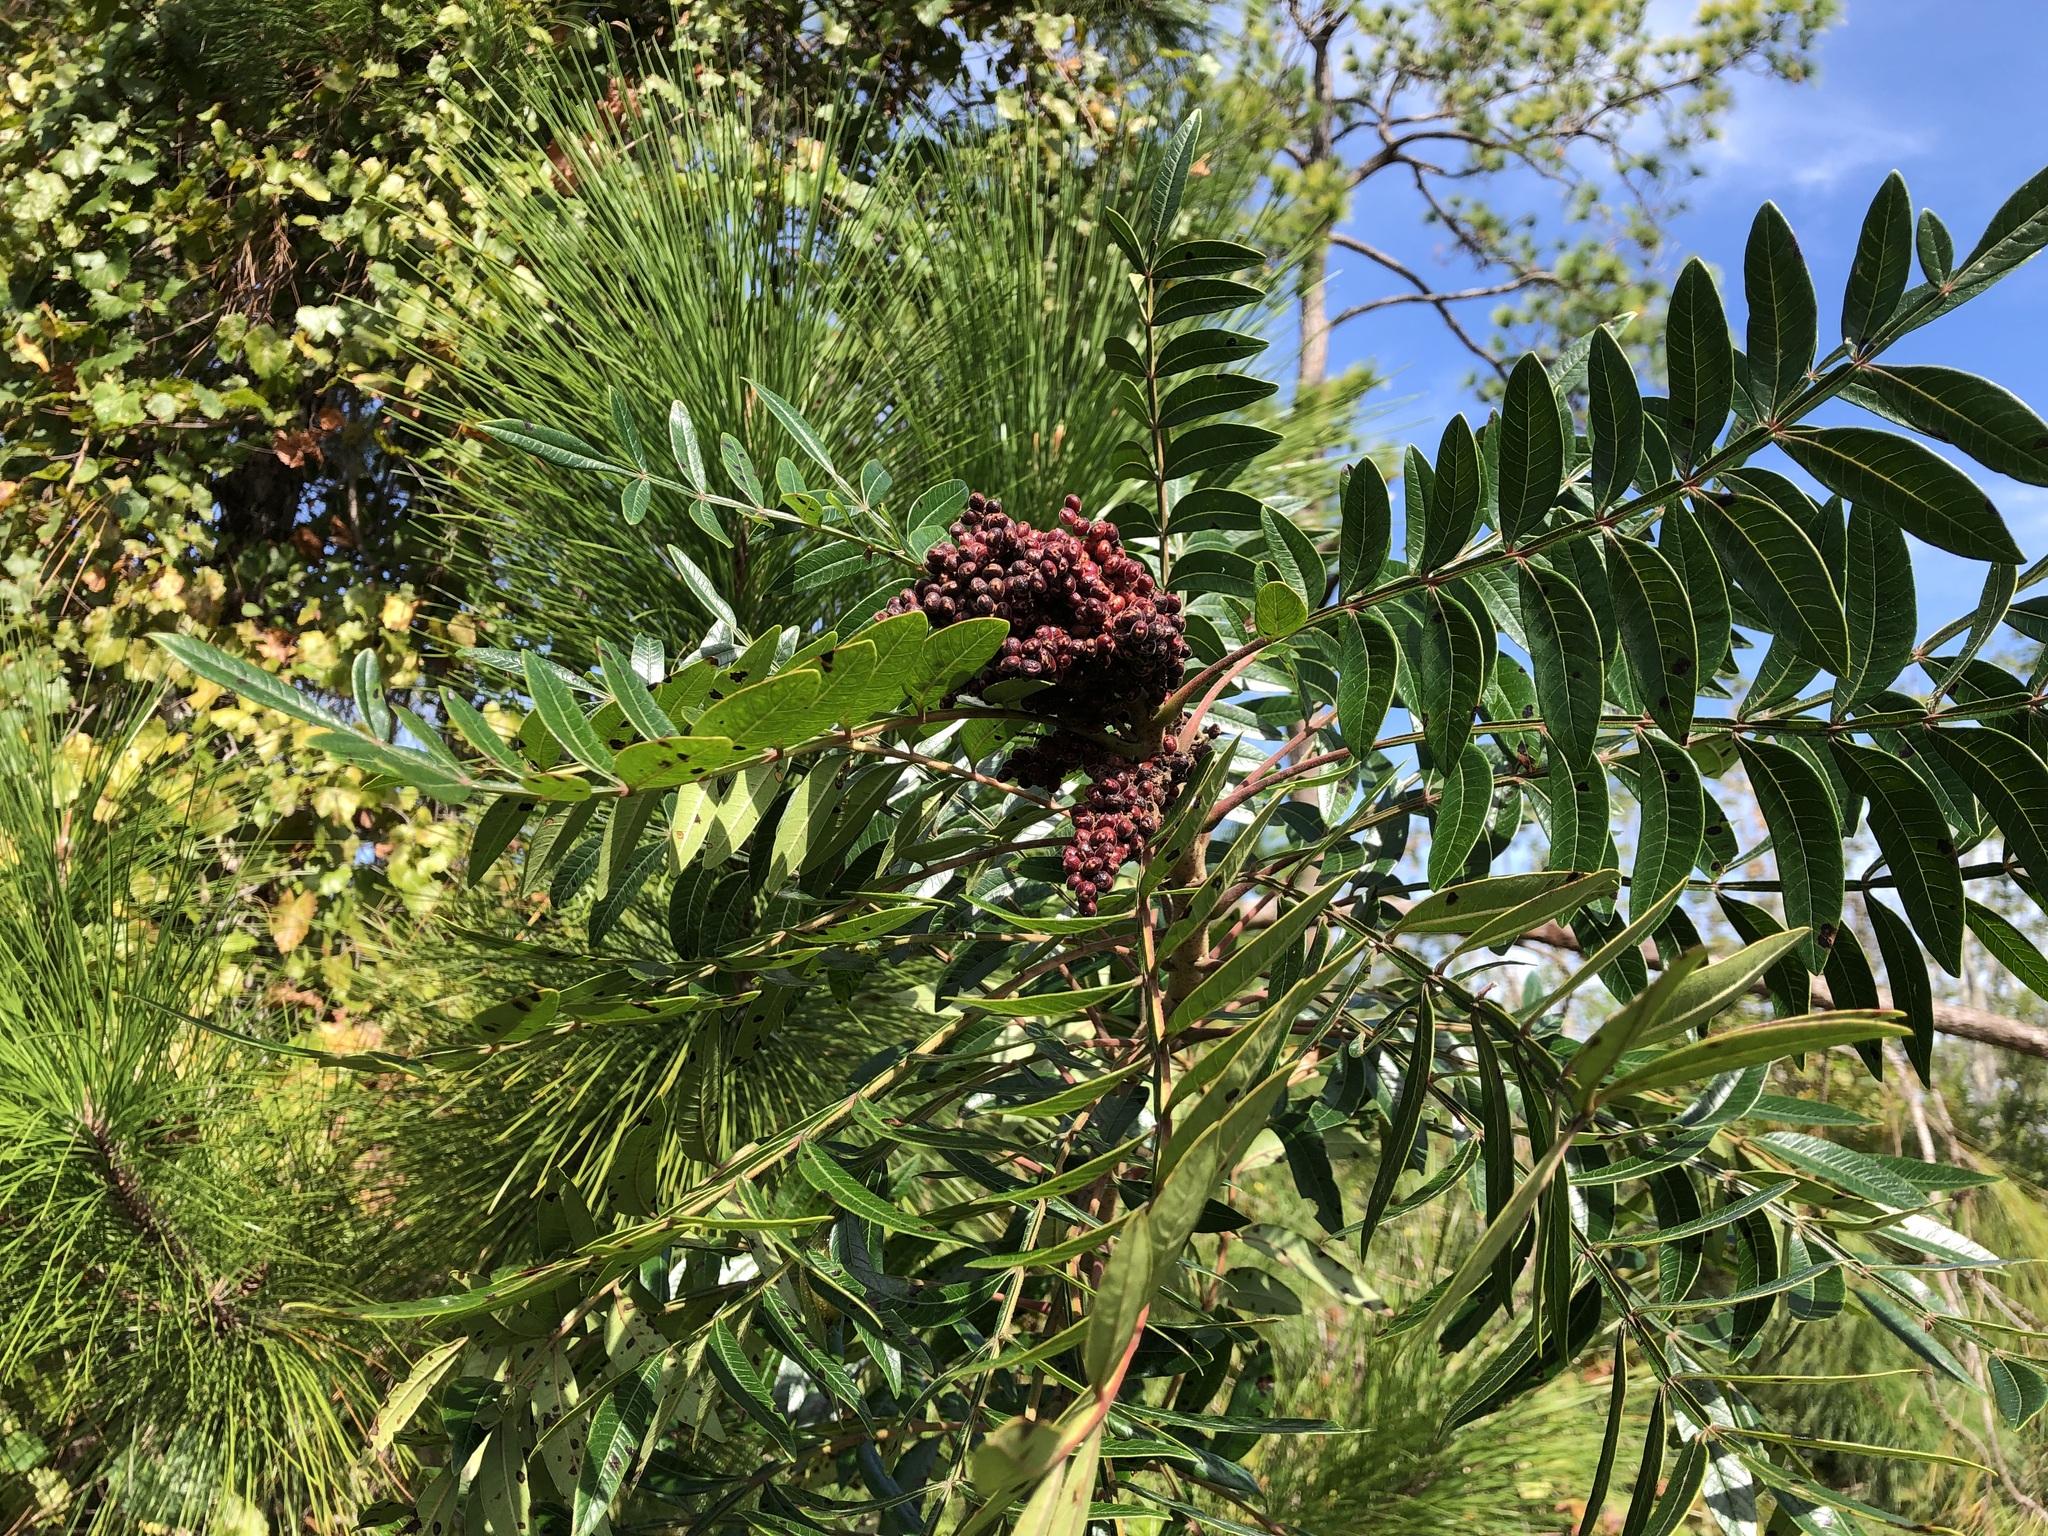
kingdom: Plantae
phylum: Tracheophyta
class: Magnoliopsida
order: Sapindales
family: Anacardiaceae
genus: Rhus
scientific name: Rhus copallina
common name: Shining sumac
